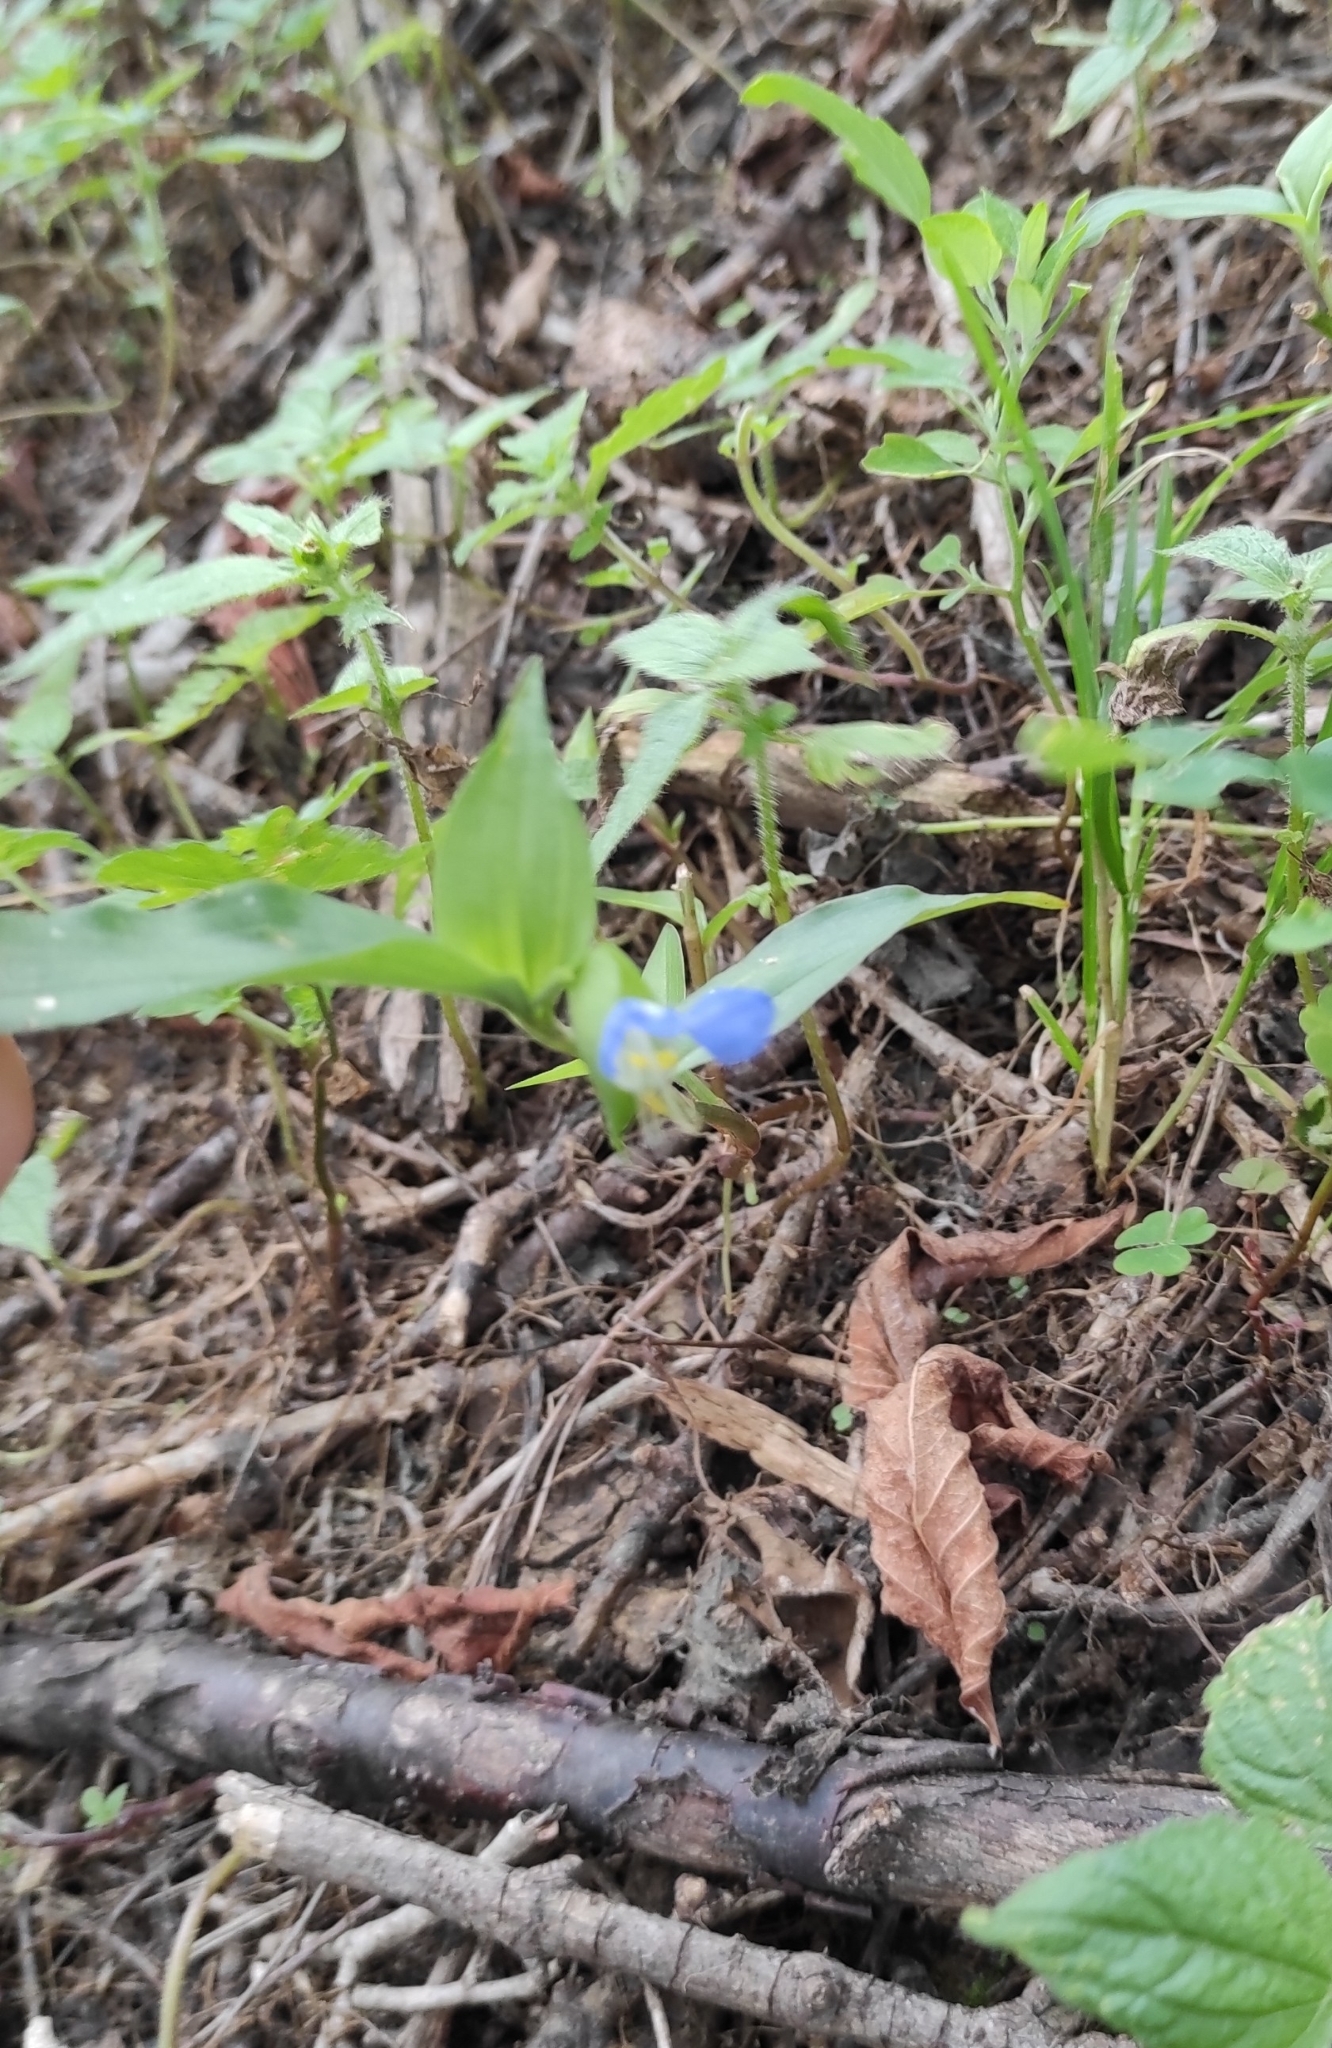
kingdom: Plantae
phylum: Tracheophyta
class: Liliopsida
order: Commelinales
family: Commelinaceae
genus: Commelina
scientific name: Commelina communis
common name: Asiatic dayflower
